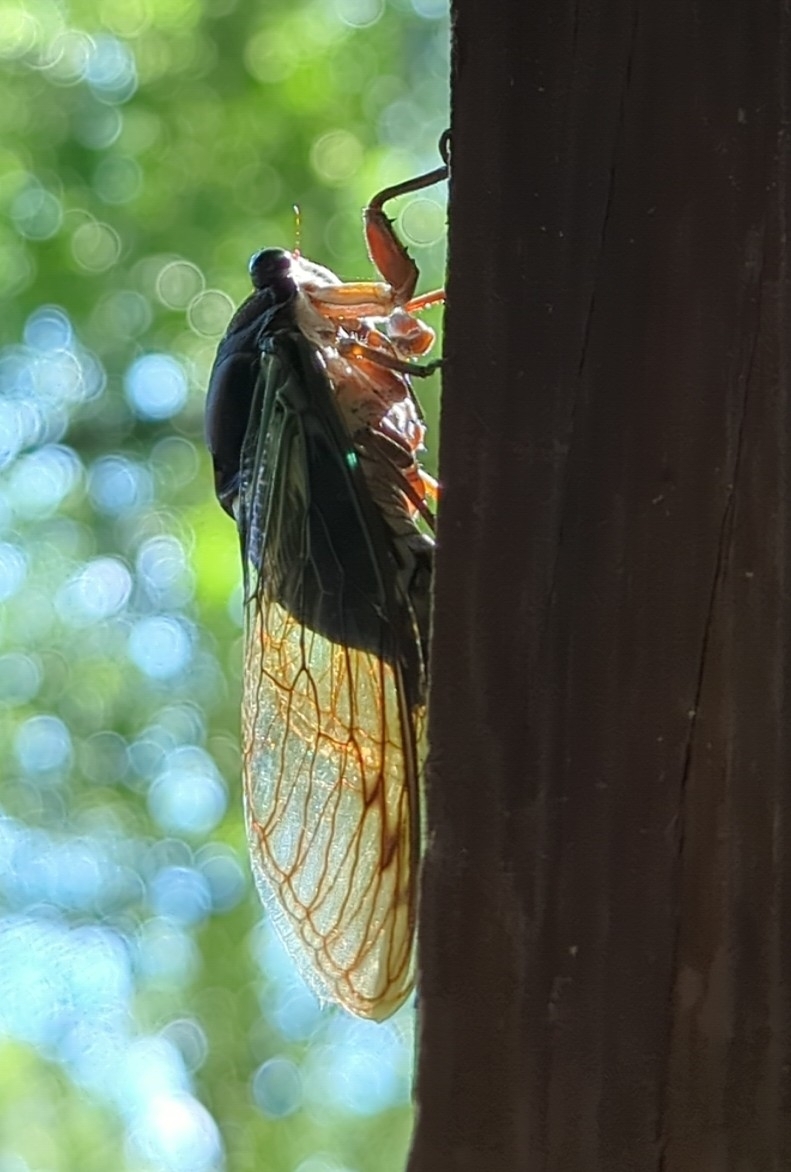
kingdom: Animalia
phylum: Arthropoda
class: Insecta
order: Hemiptera
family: Cicadidae
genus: Neotibicen
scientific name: Neotibicen lyricen
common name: Lyric cicada
